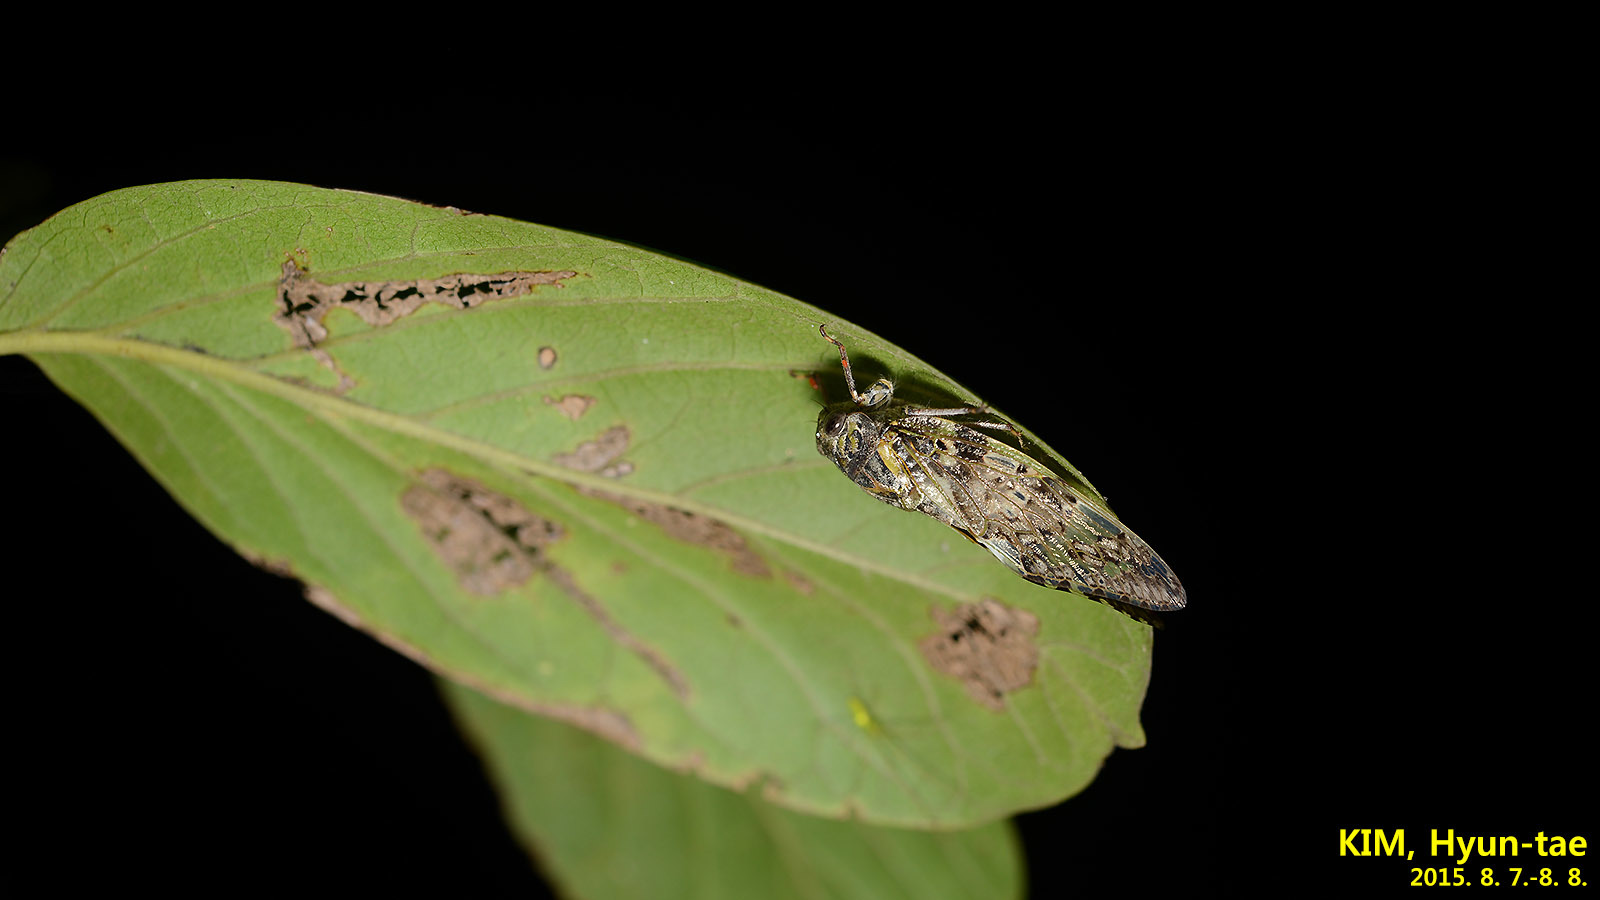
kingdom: Animalia
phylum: Arthropoda
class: Insecta
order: Hemiptera
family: Cicadidae
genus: Platypleura
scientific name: Platypleura kaempferi
